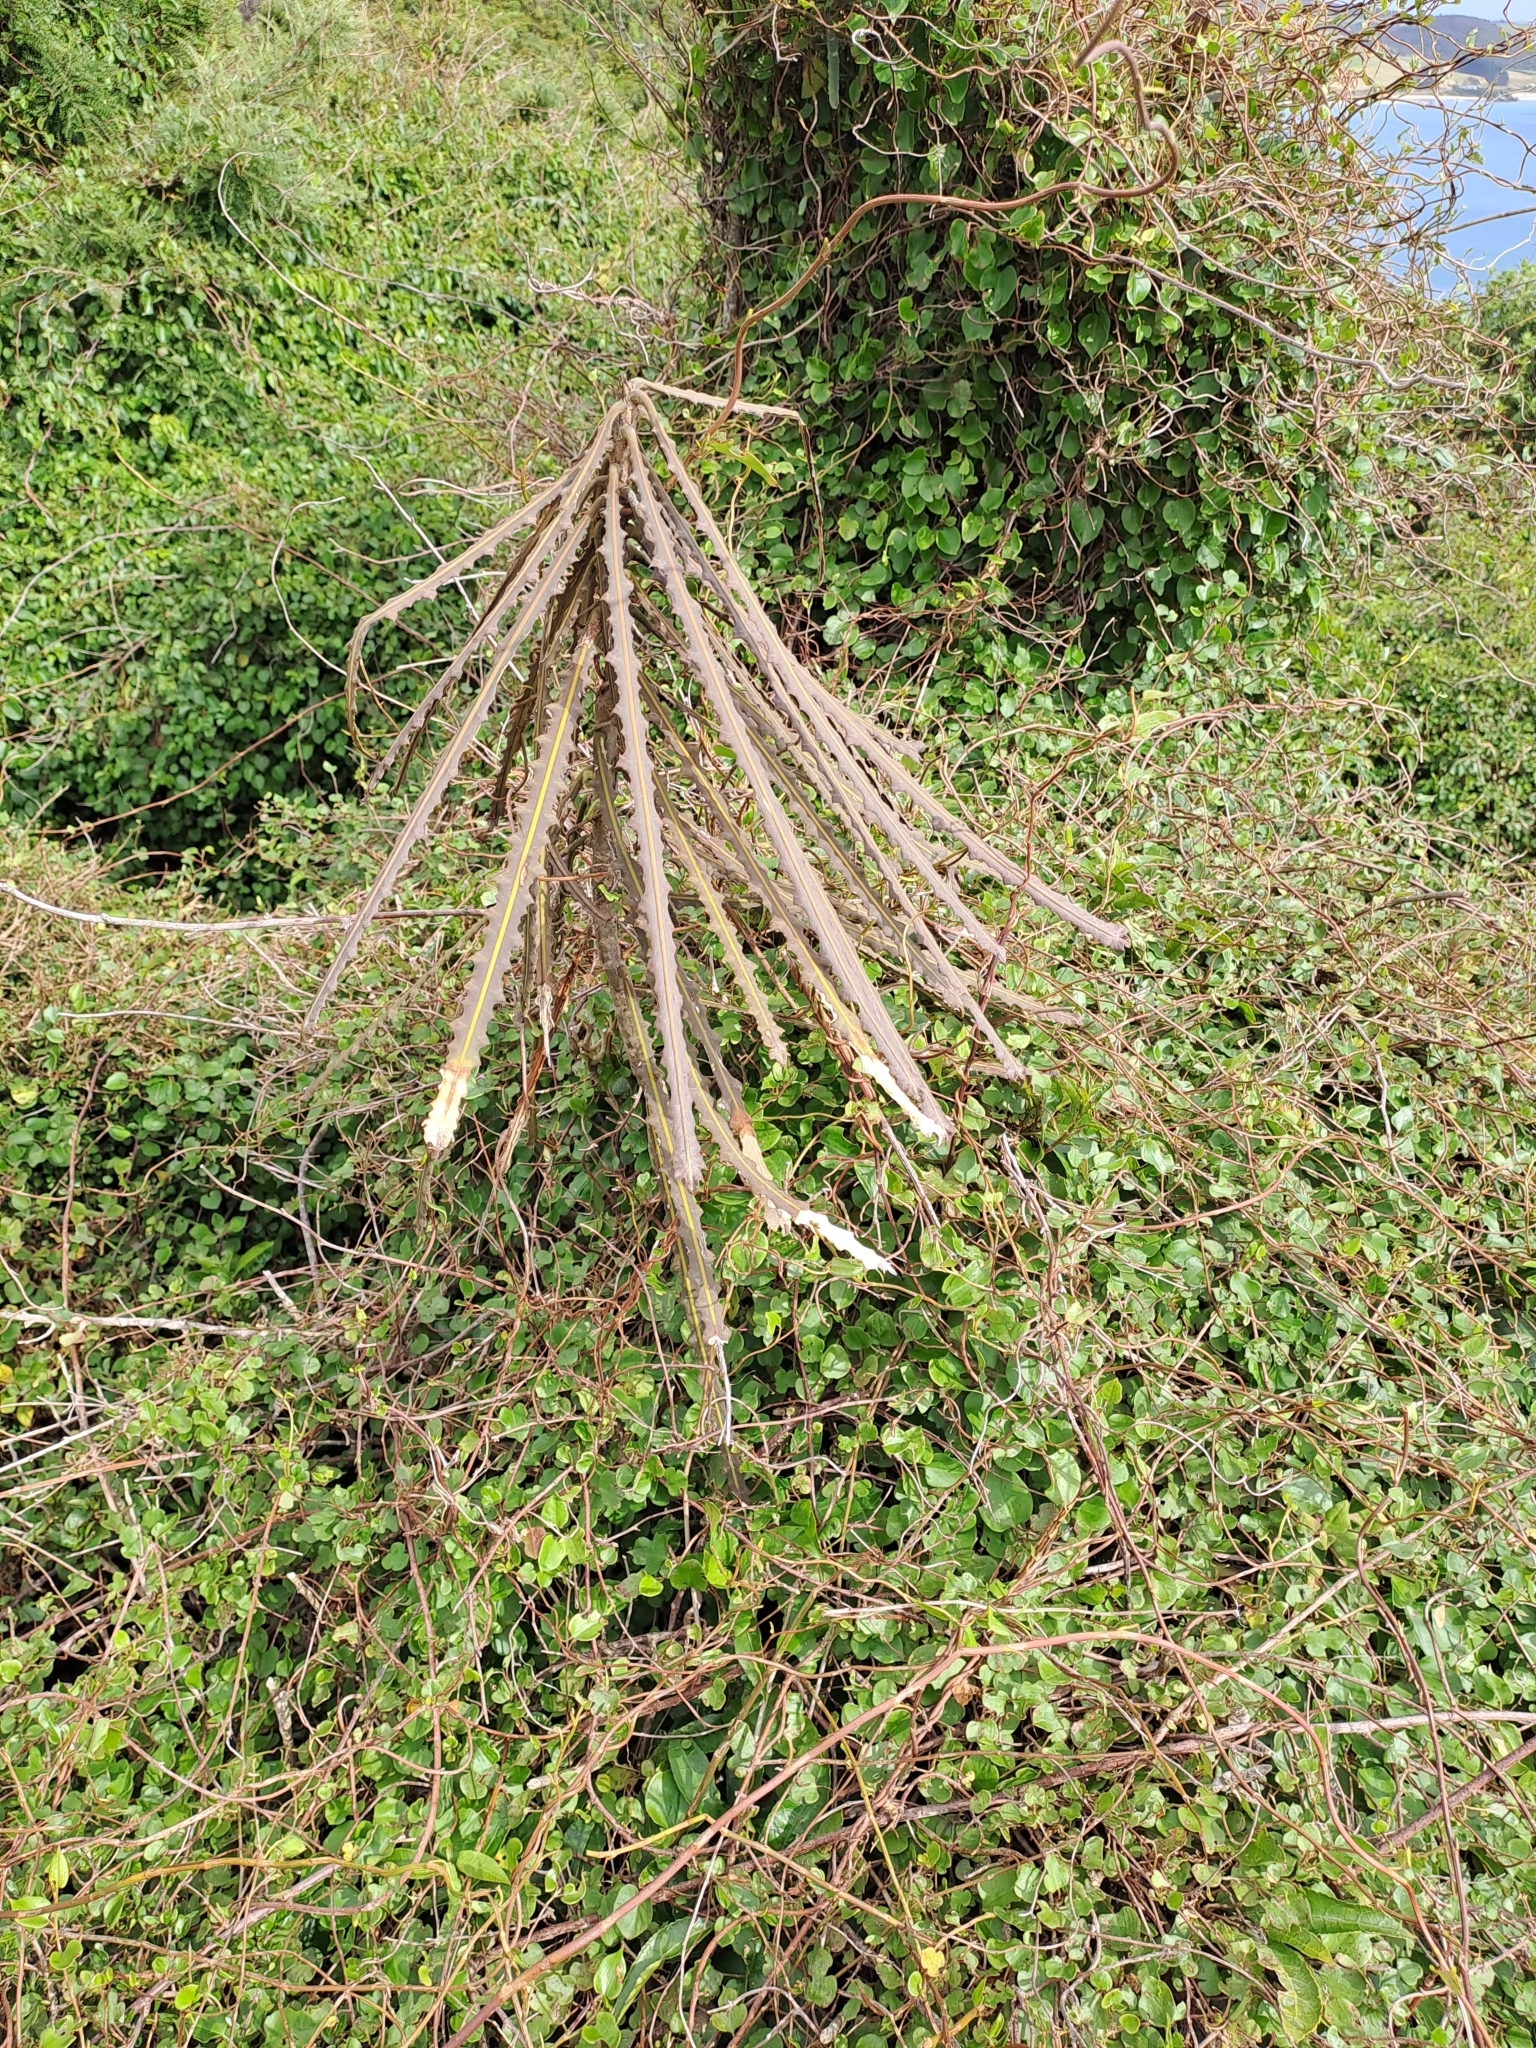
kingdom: Plantae
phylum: Tracheophyta
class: Magnoliopsida
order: Apiales
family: Araliaceae
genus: Pseudopanax
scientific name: Pseudopanax ferox
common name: Fierce lancewood
